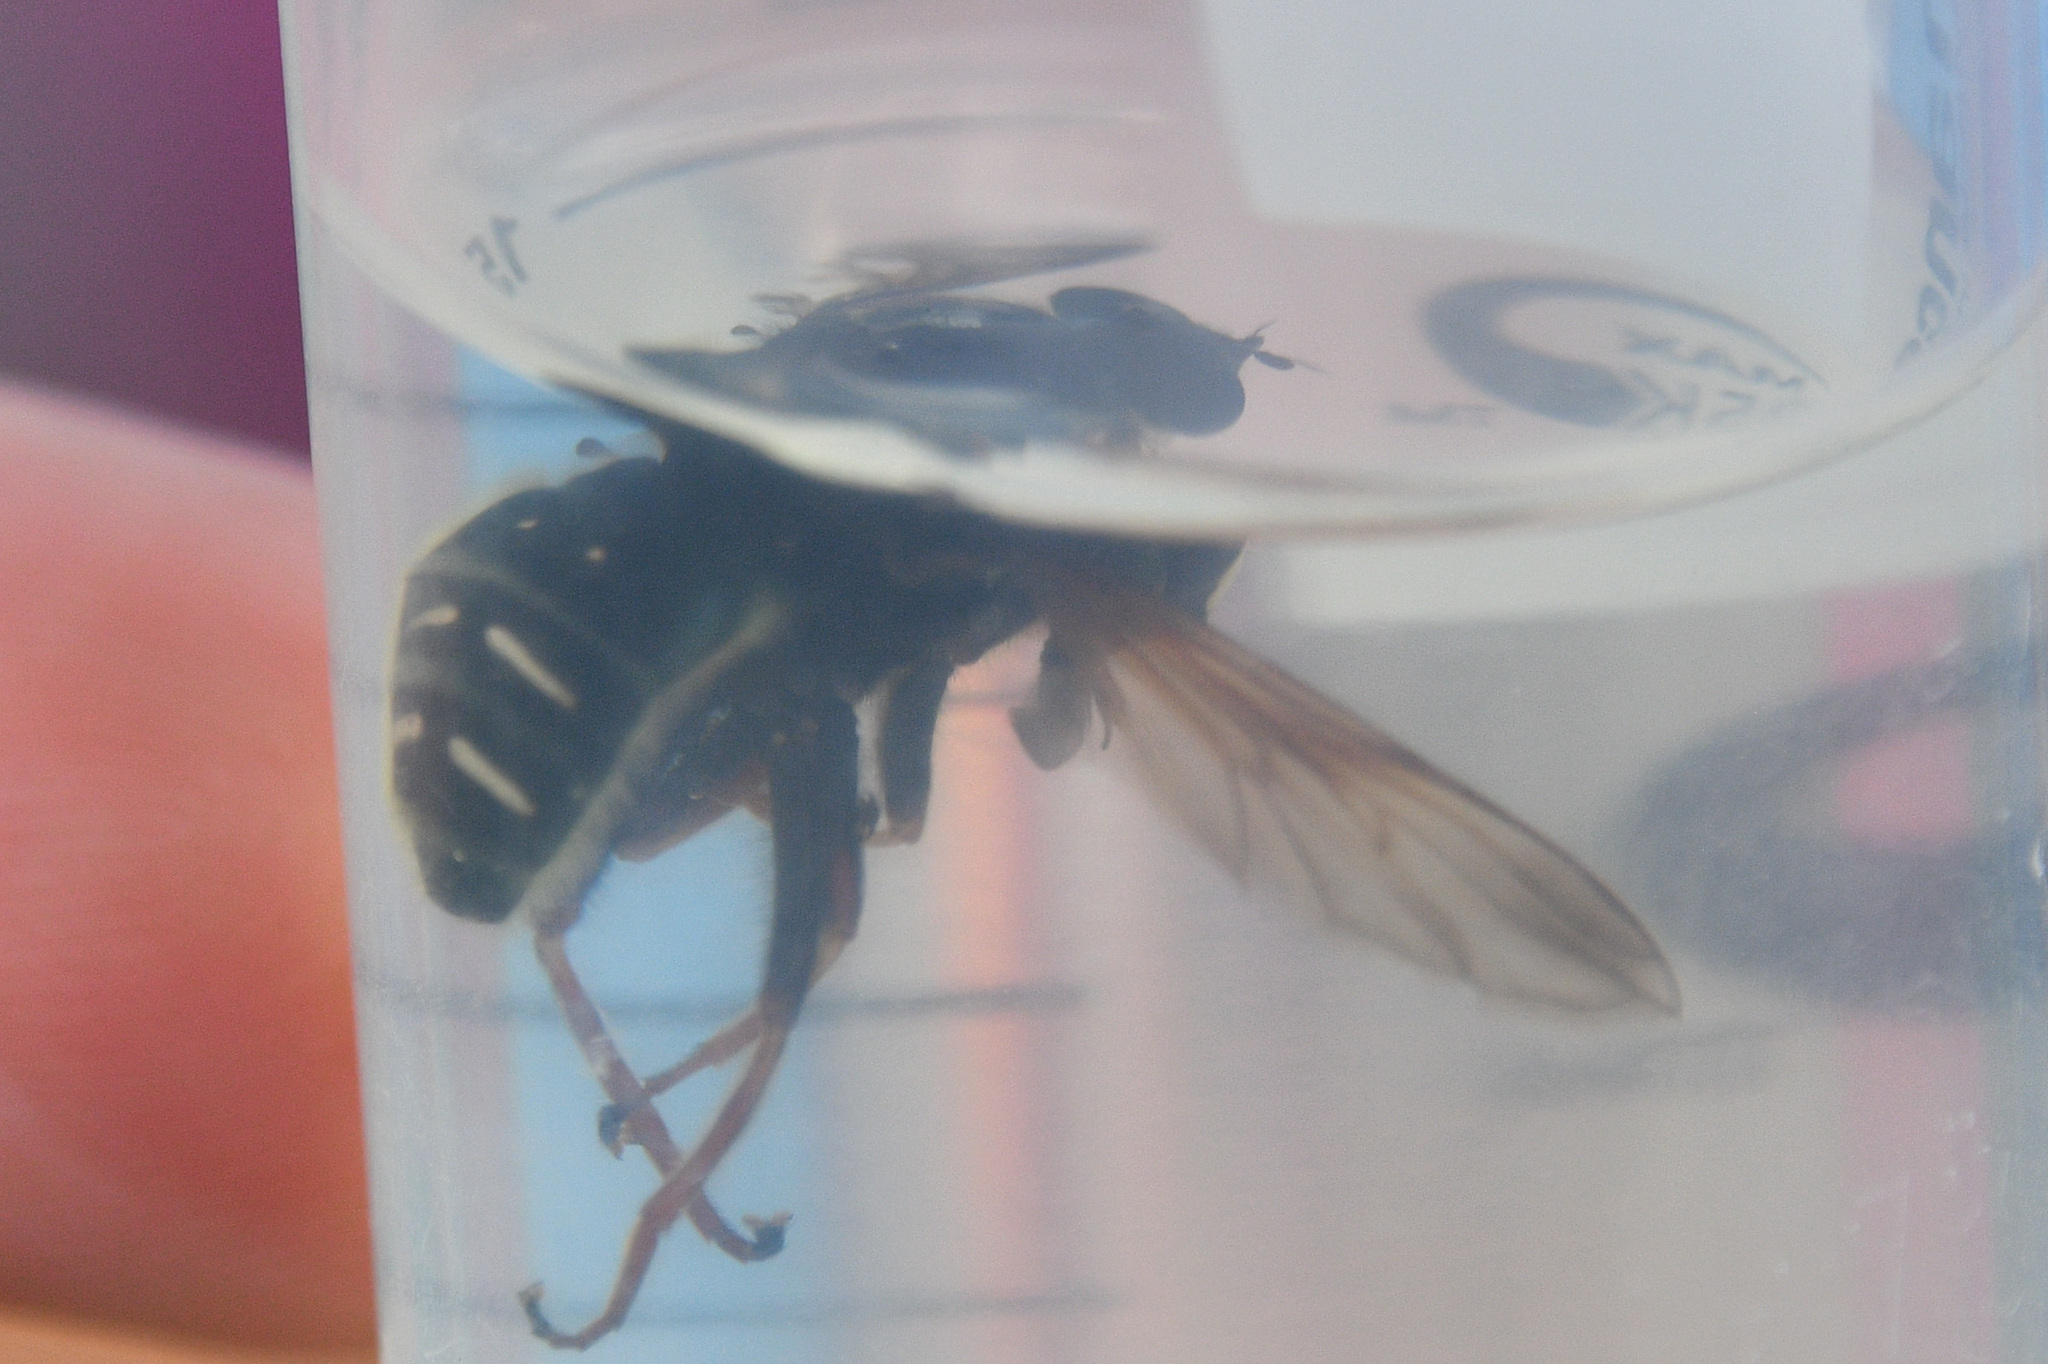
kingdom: Animalia
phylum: Arthropoda
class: Insecta
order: Diptera
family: Syrphidae
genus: Sericomyia
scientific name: Sericomyia militaris
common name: Narrow-banded pond fly
